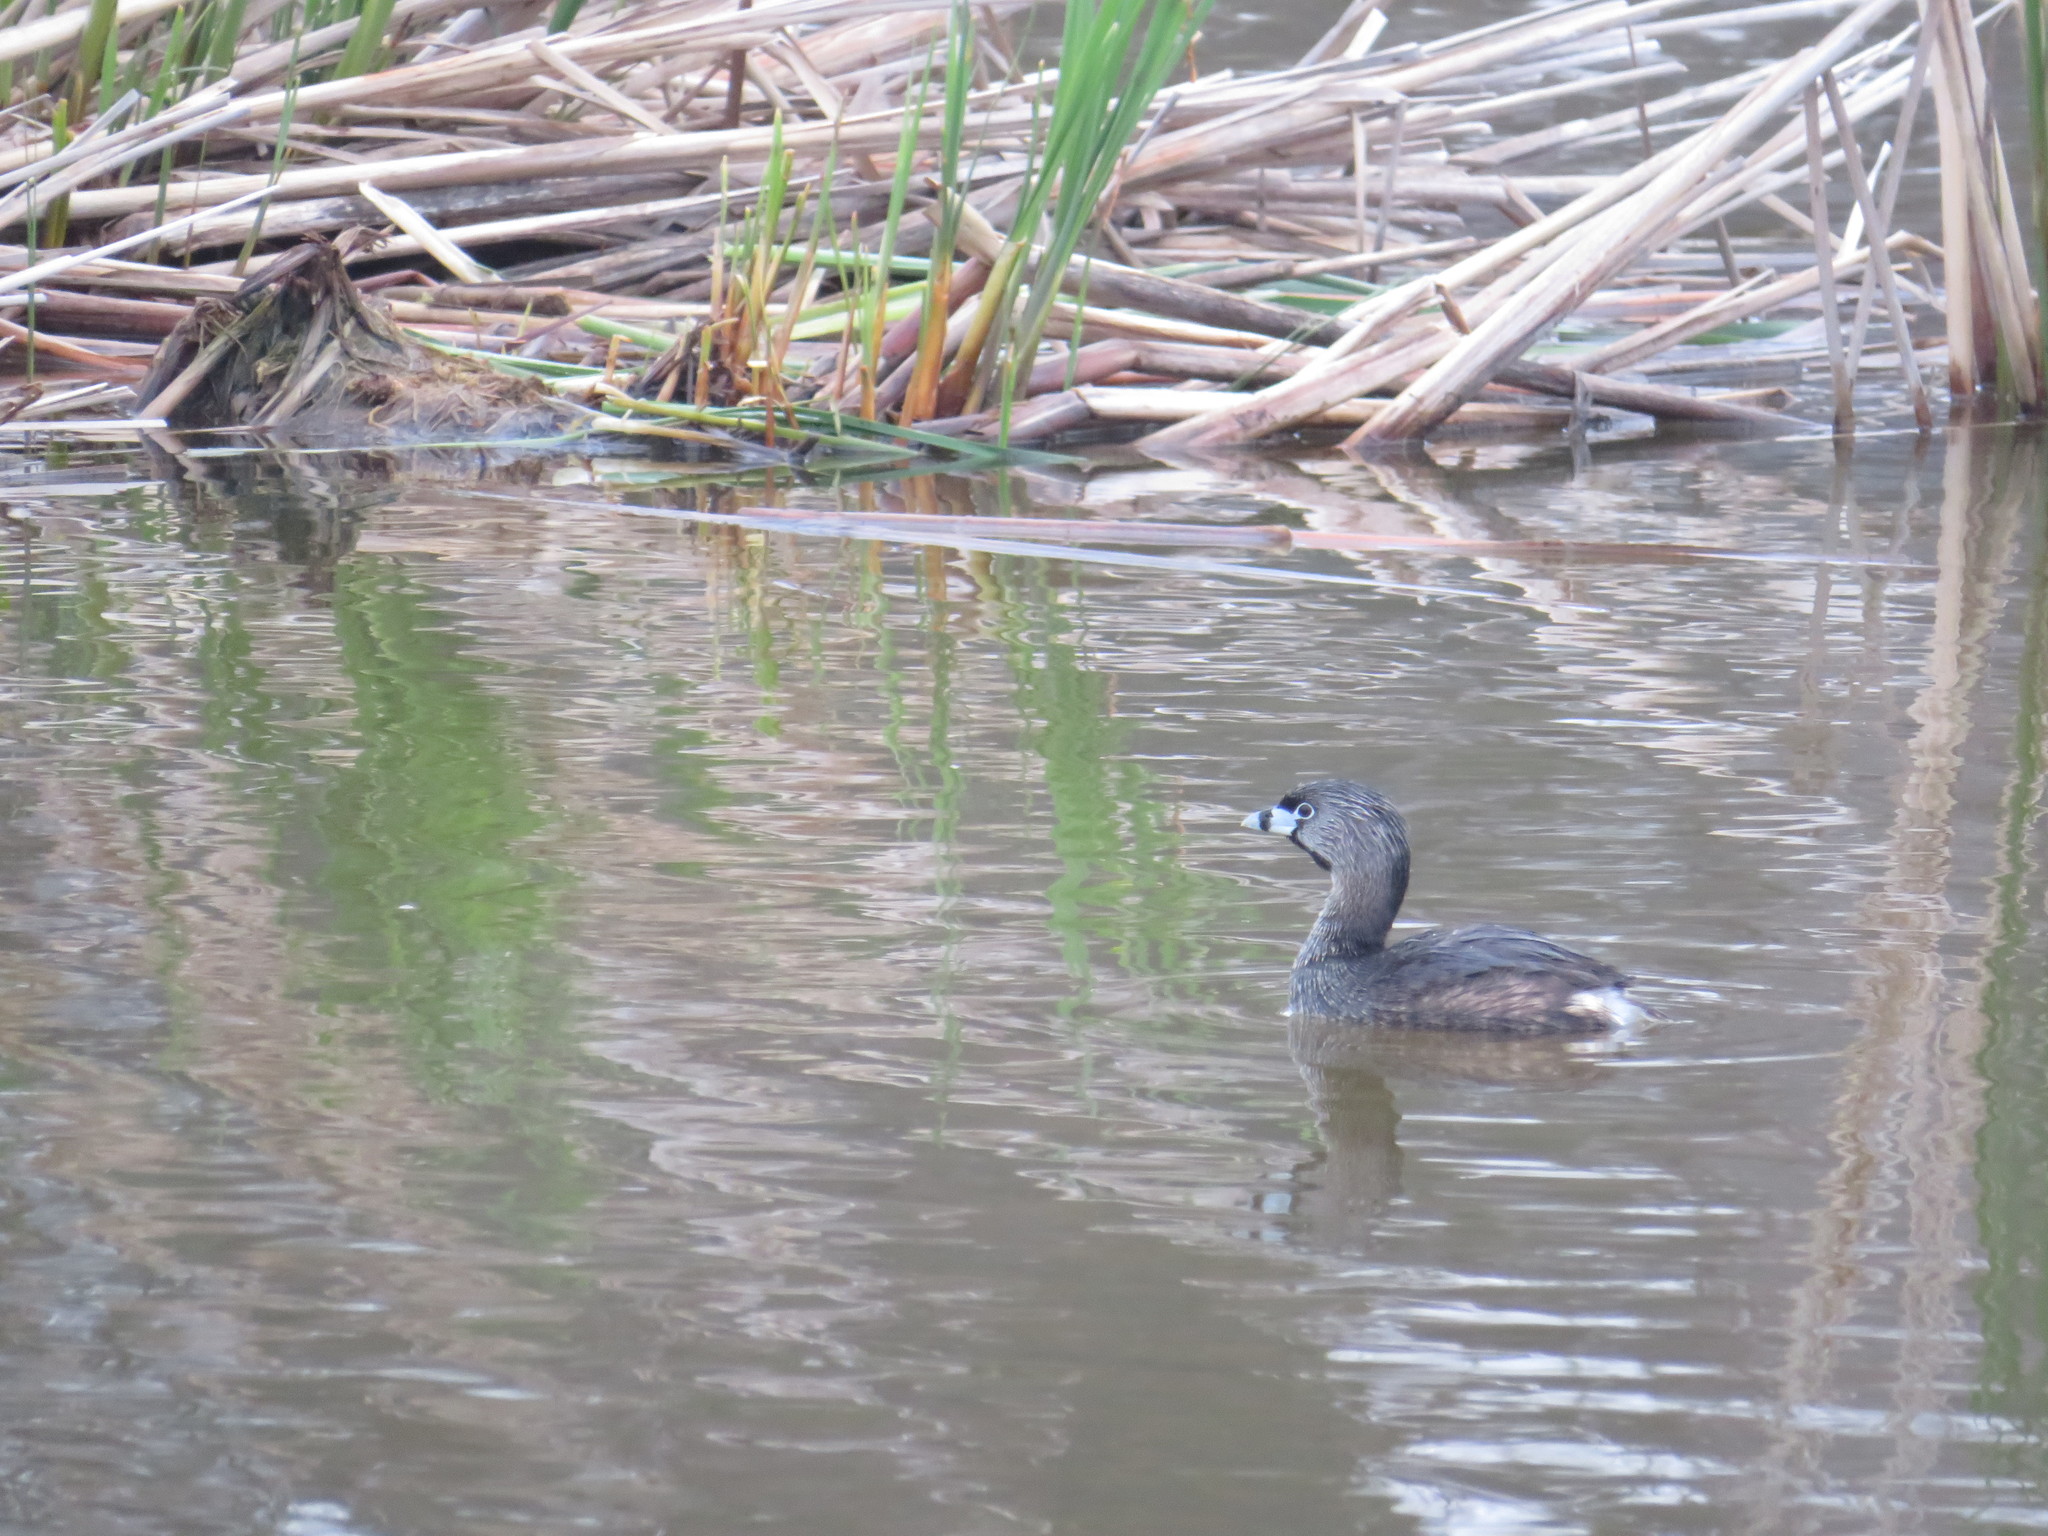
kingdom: Animalia
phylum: Chordata
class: Aves
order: Podicipediformes
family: Podicipedidae
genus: Podilymbus
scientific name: Podilymbus podiceps
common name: Pied-billed grebe
